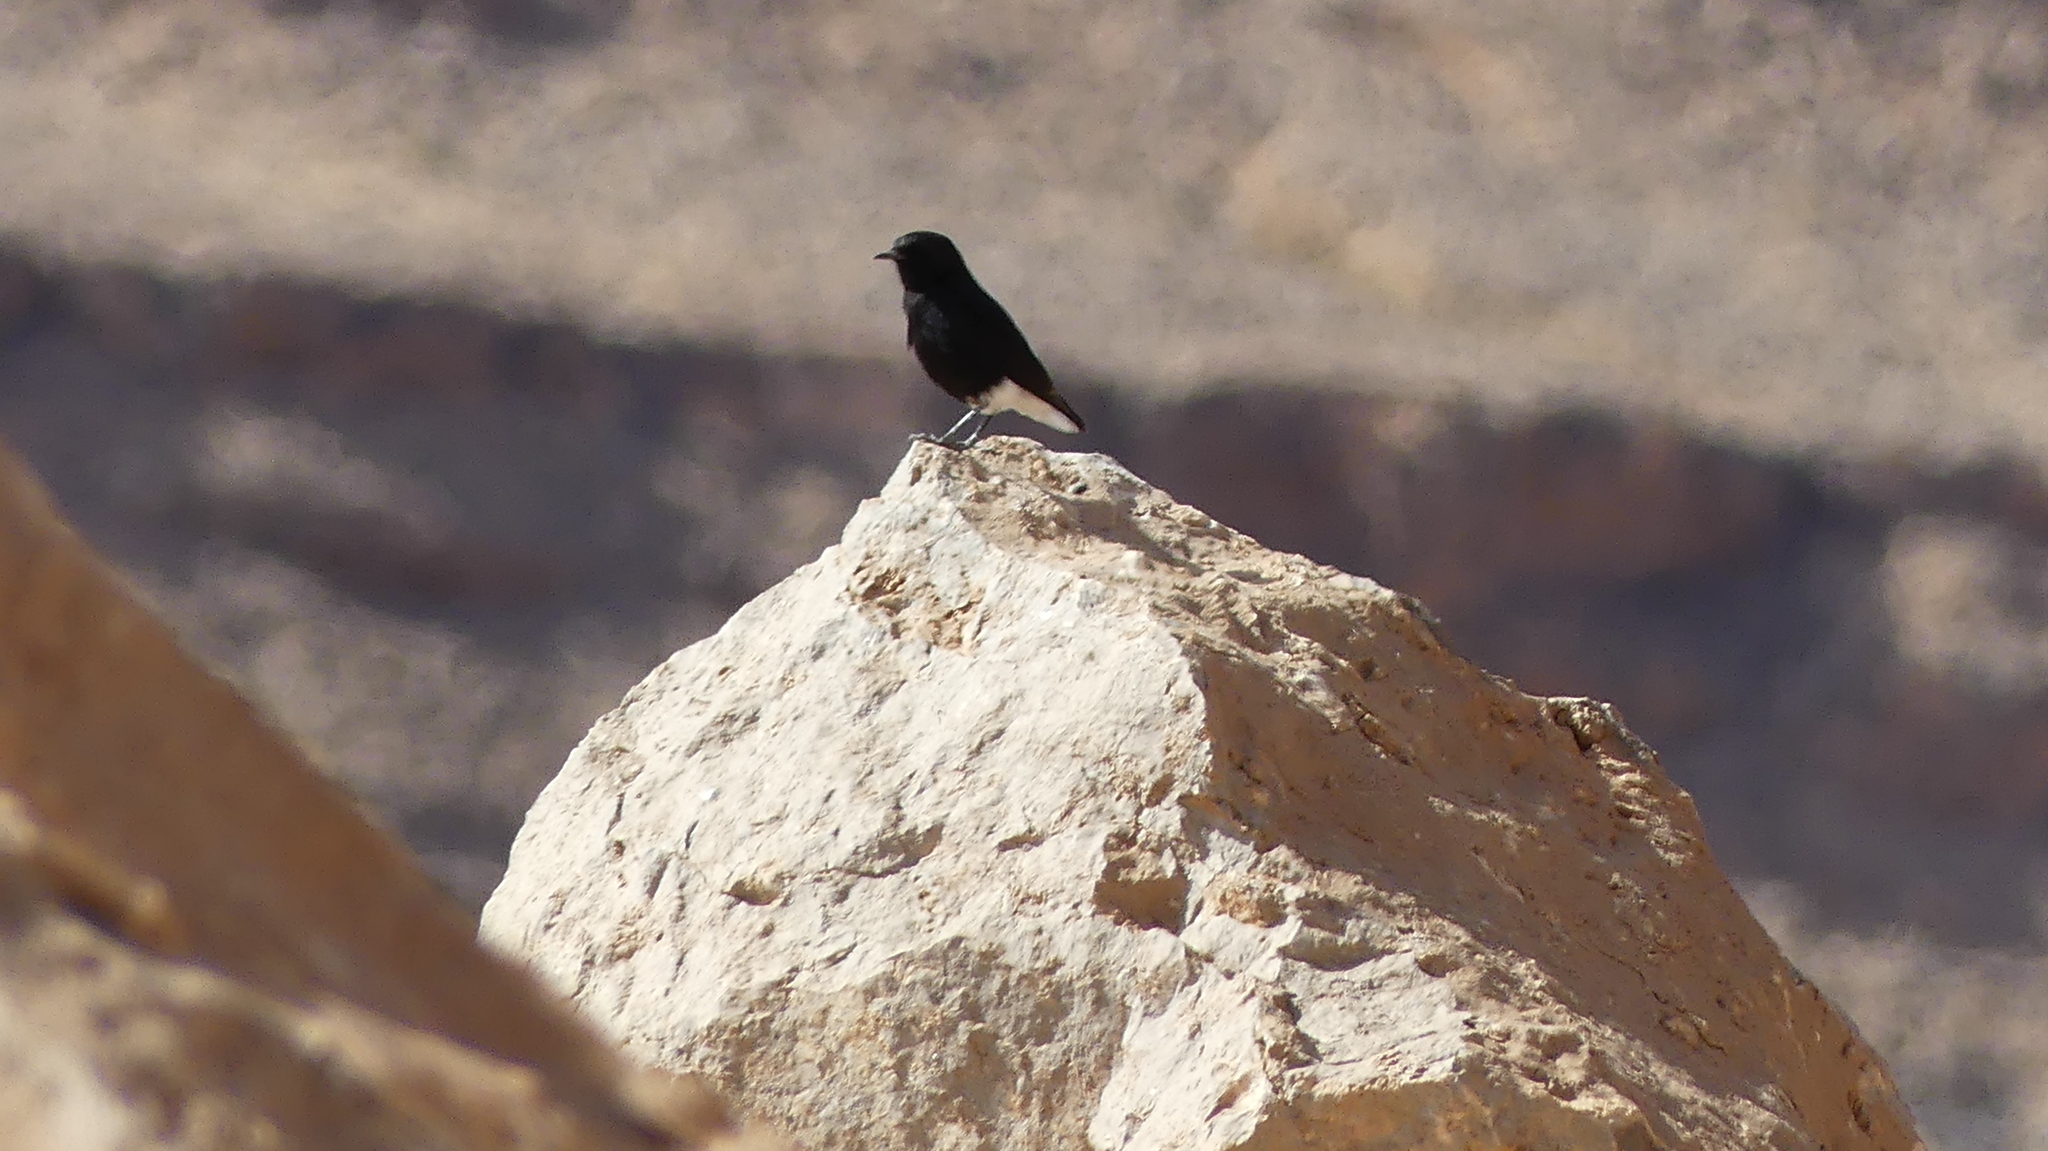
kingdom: Animalia
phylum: Chordata
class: Aves
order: Passeriformes
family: Muscicapidae
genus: Oenanthe
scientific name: Oenanthe leucopyga
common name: White-crowned wheatear
